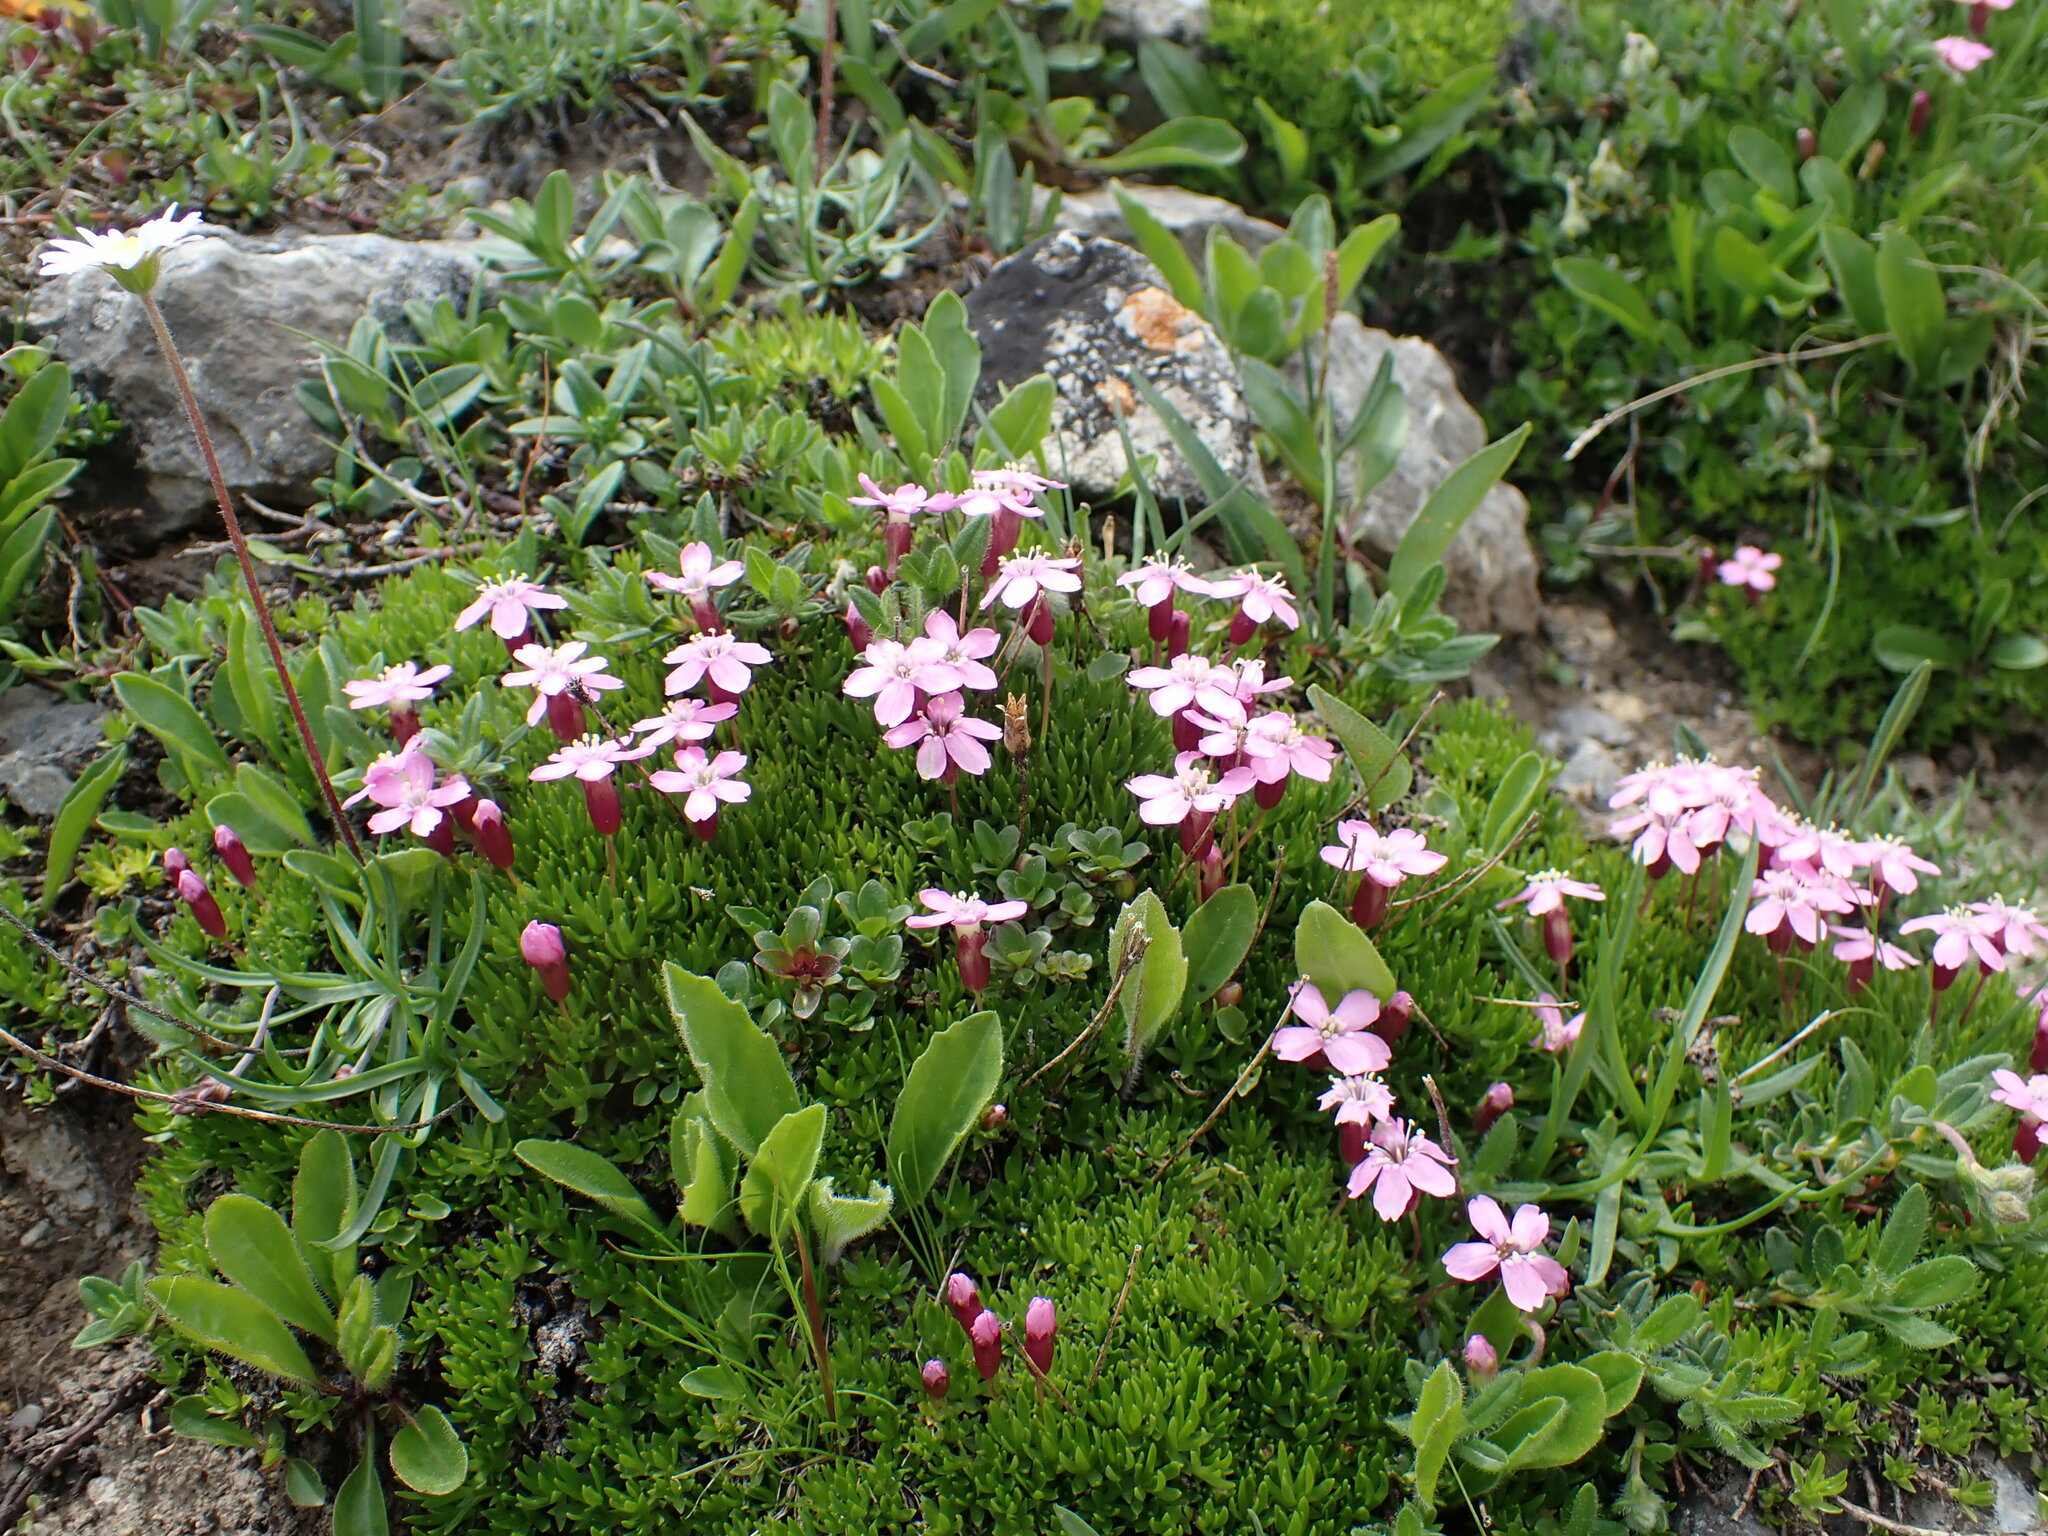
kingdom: Plantae
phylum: Tracheophyta
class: Magnoliopsida
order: Caryophyllales
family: Caryophyllaceae
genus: Silene
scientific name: Silene acaulis
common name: Moss campion
